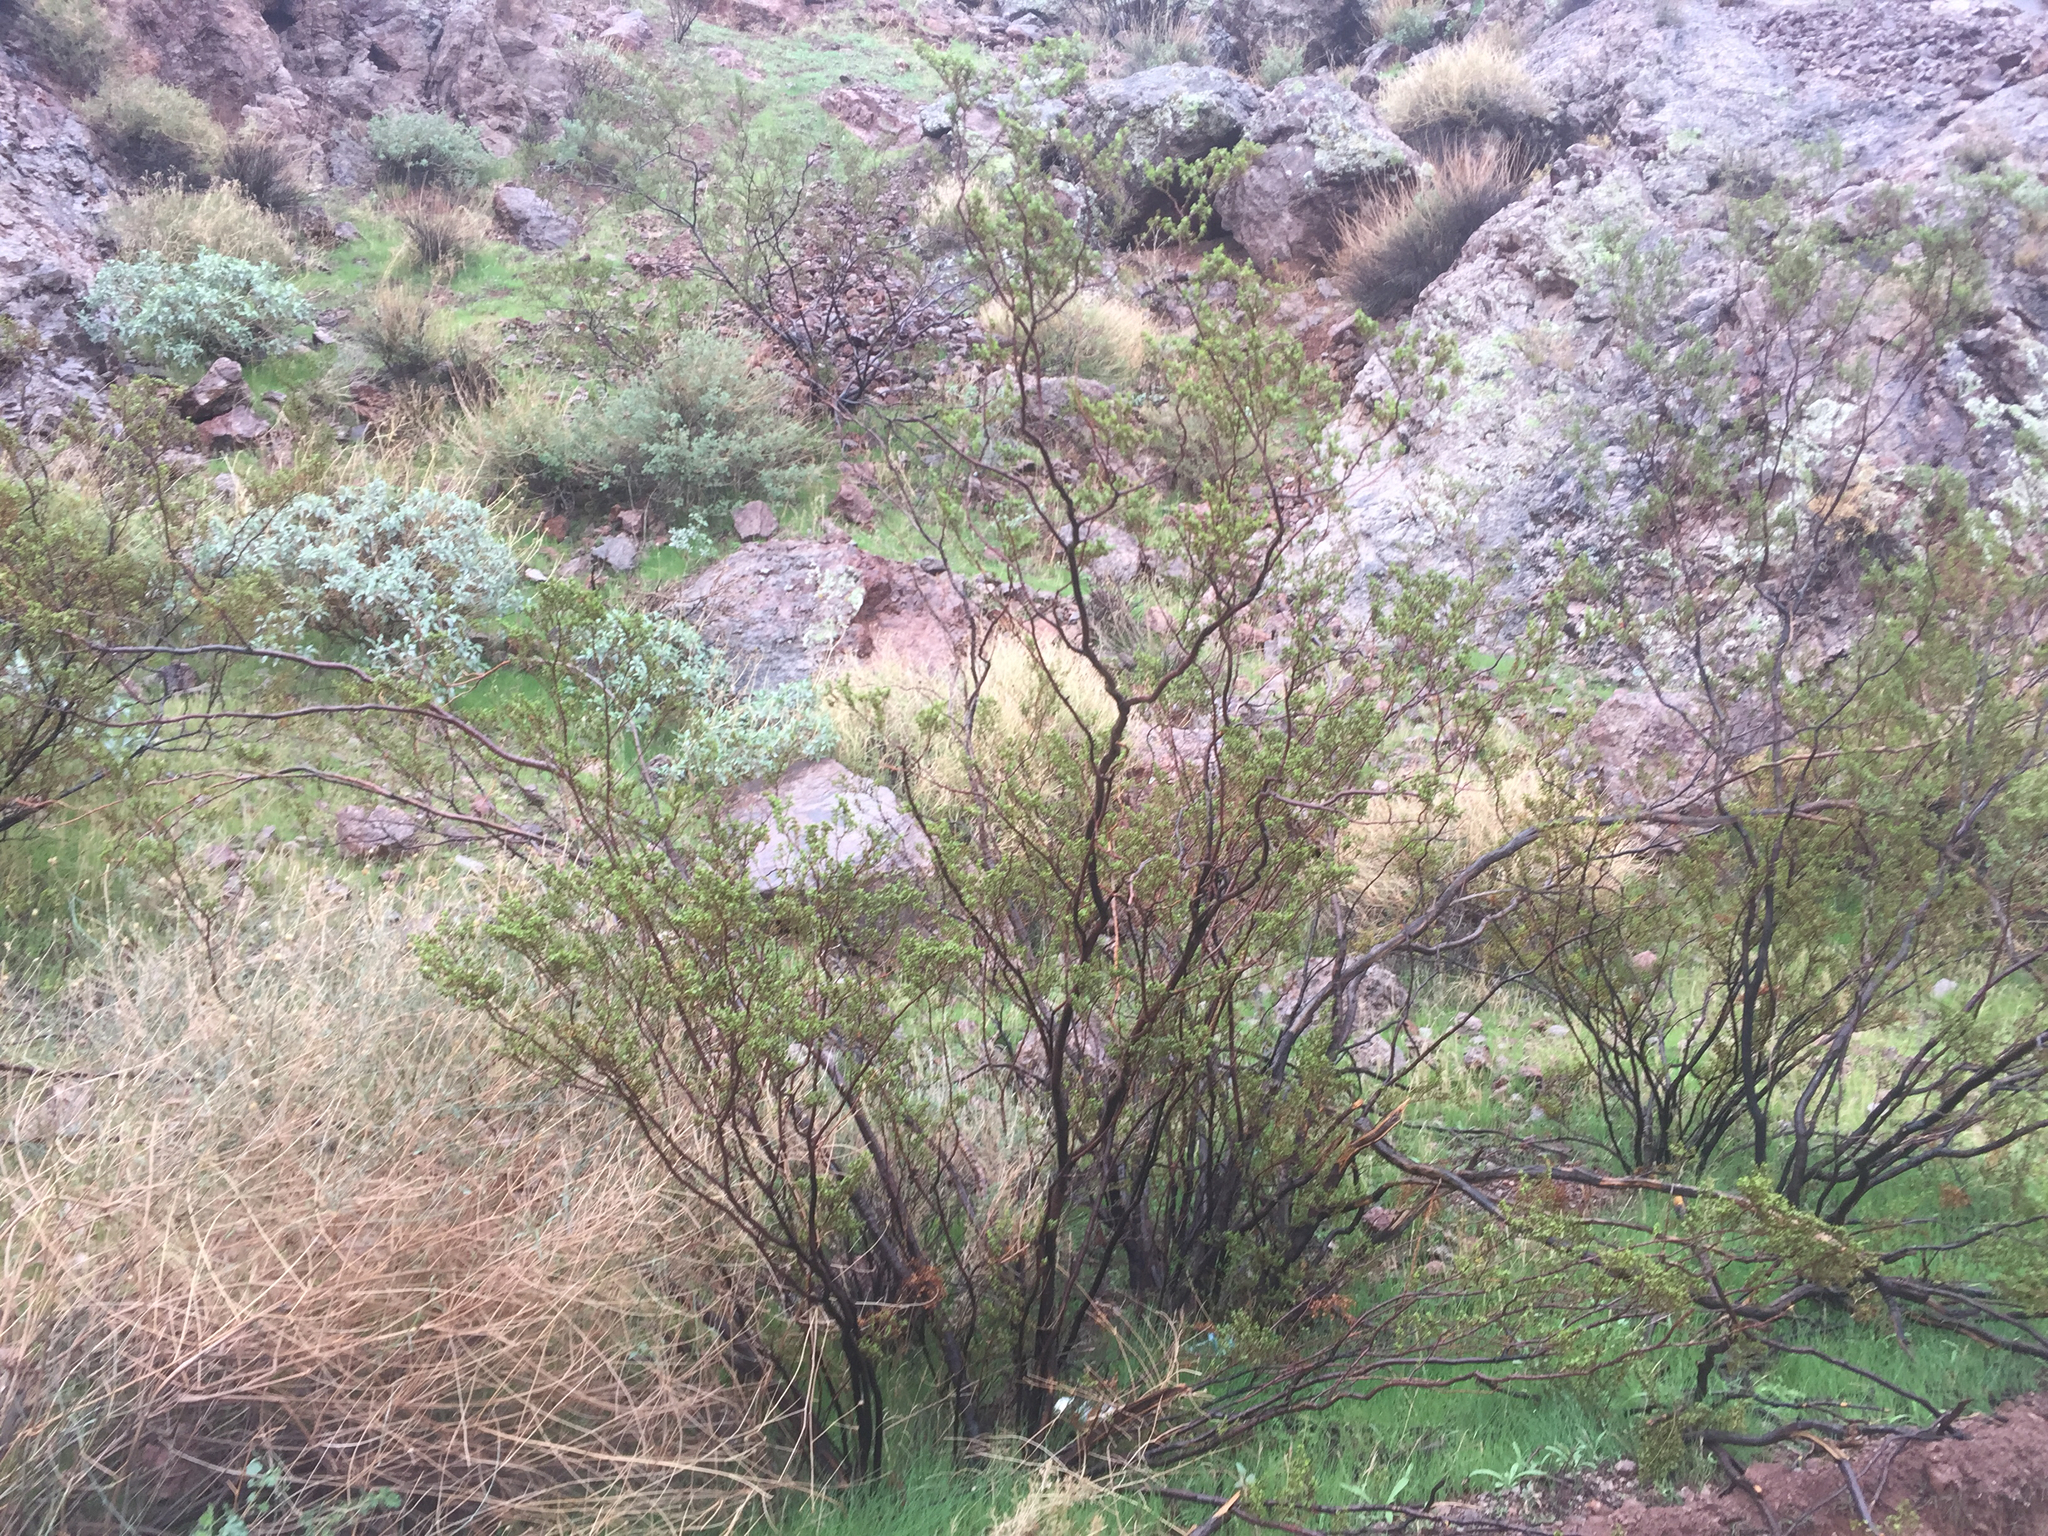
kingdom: Plantae
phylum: Tracheophyta
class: Magnoliopsida
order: Zygophyllales
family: Zygophyllaceae
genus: Larrea
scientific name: Larrea tridentata
